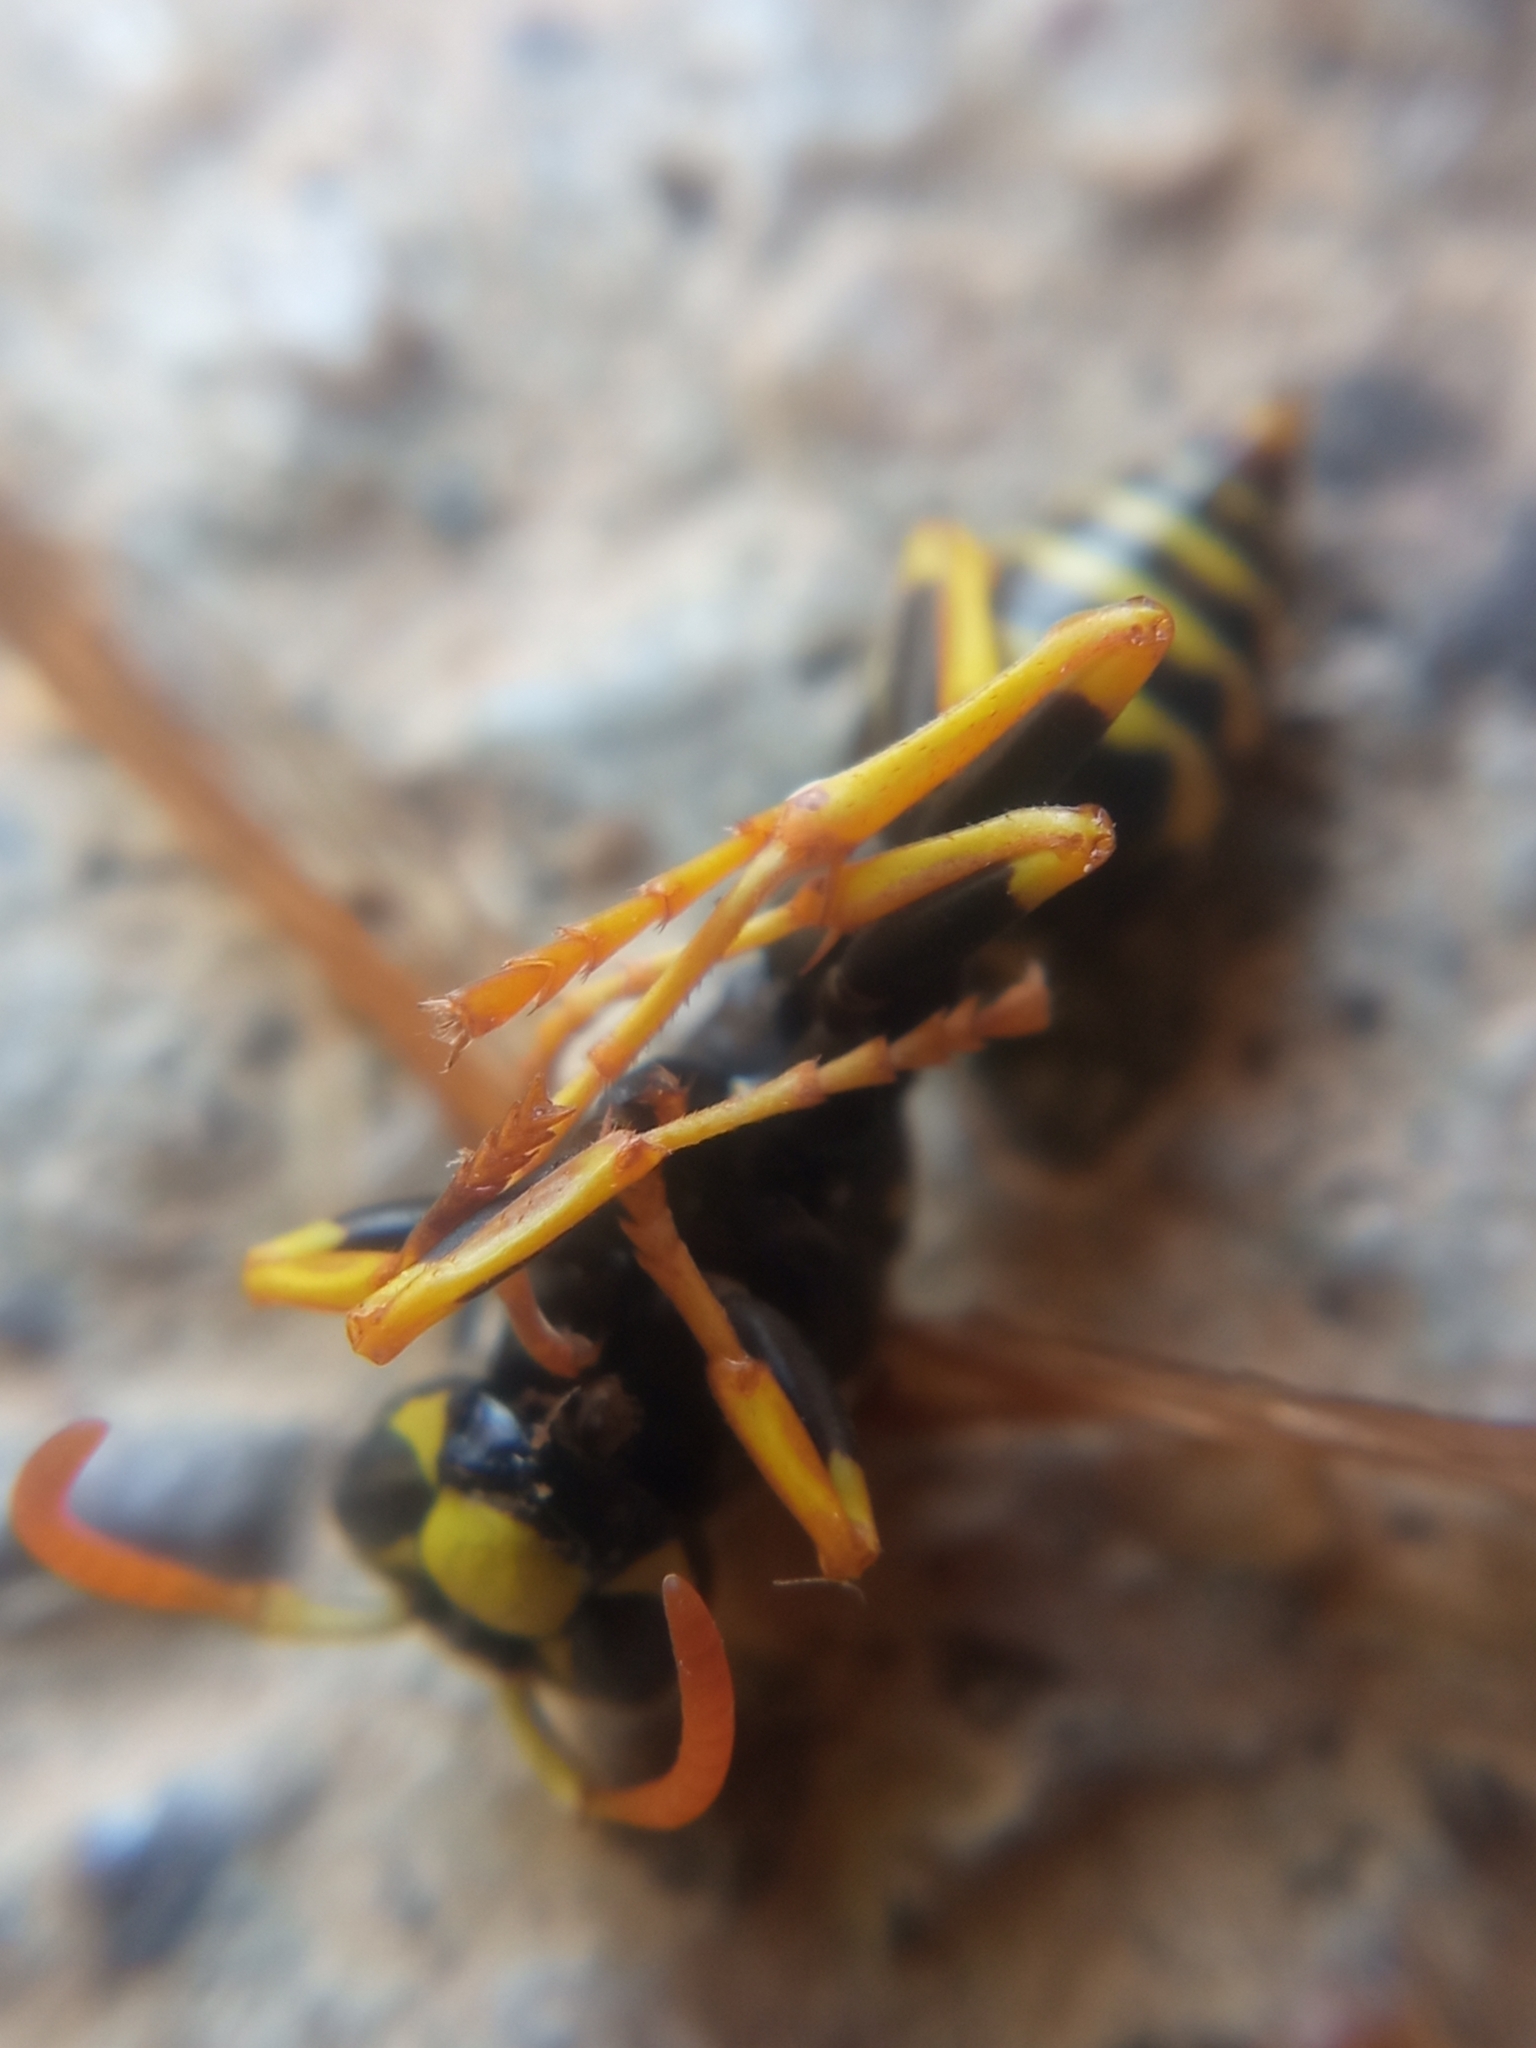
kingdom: Animalia
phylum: Arthropoda
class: Insecta
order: Hymenoptera
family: Eumenidae
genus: Polistes
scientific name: Polistes dominula
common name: Paper wasp
